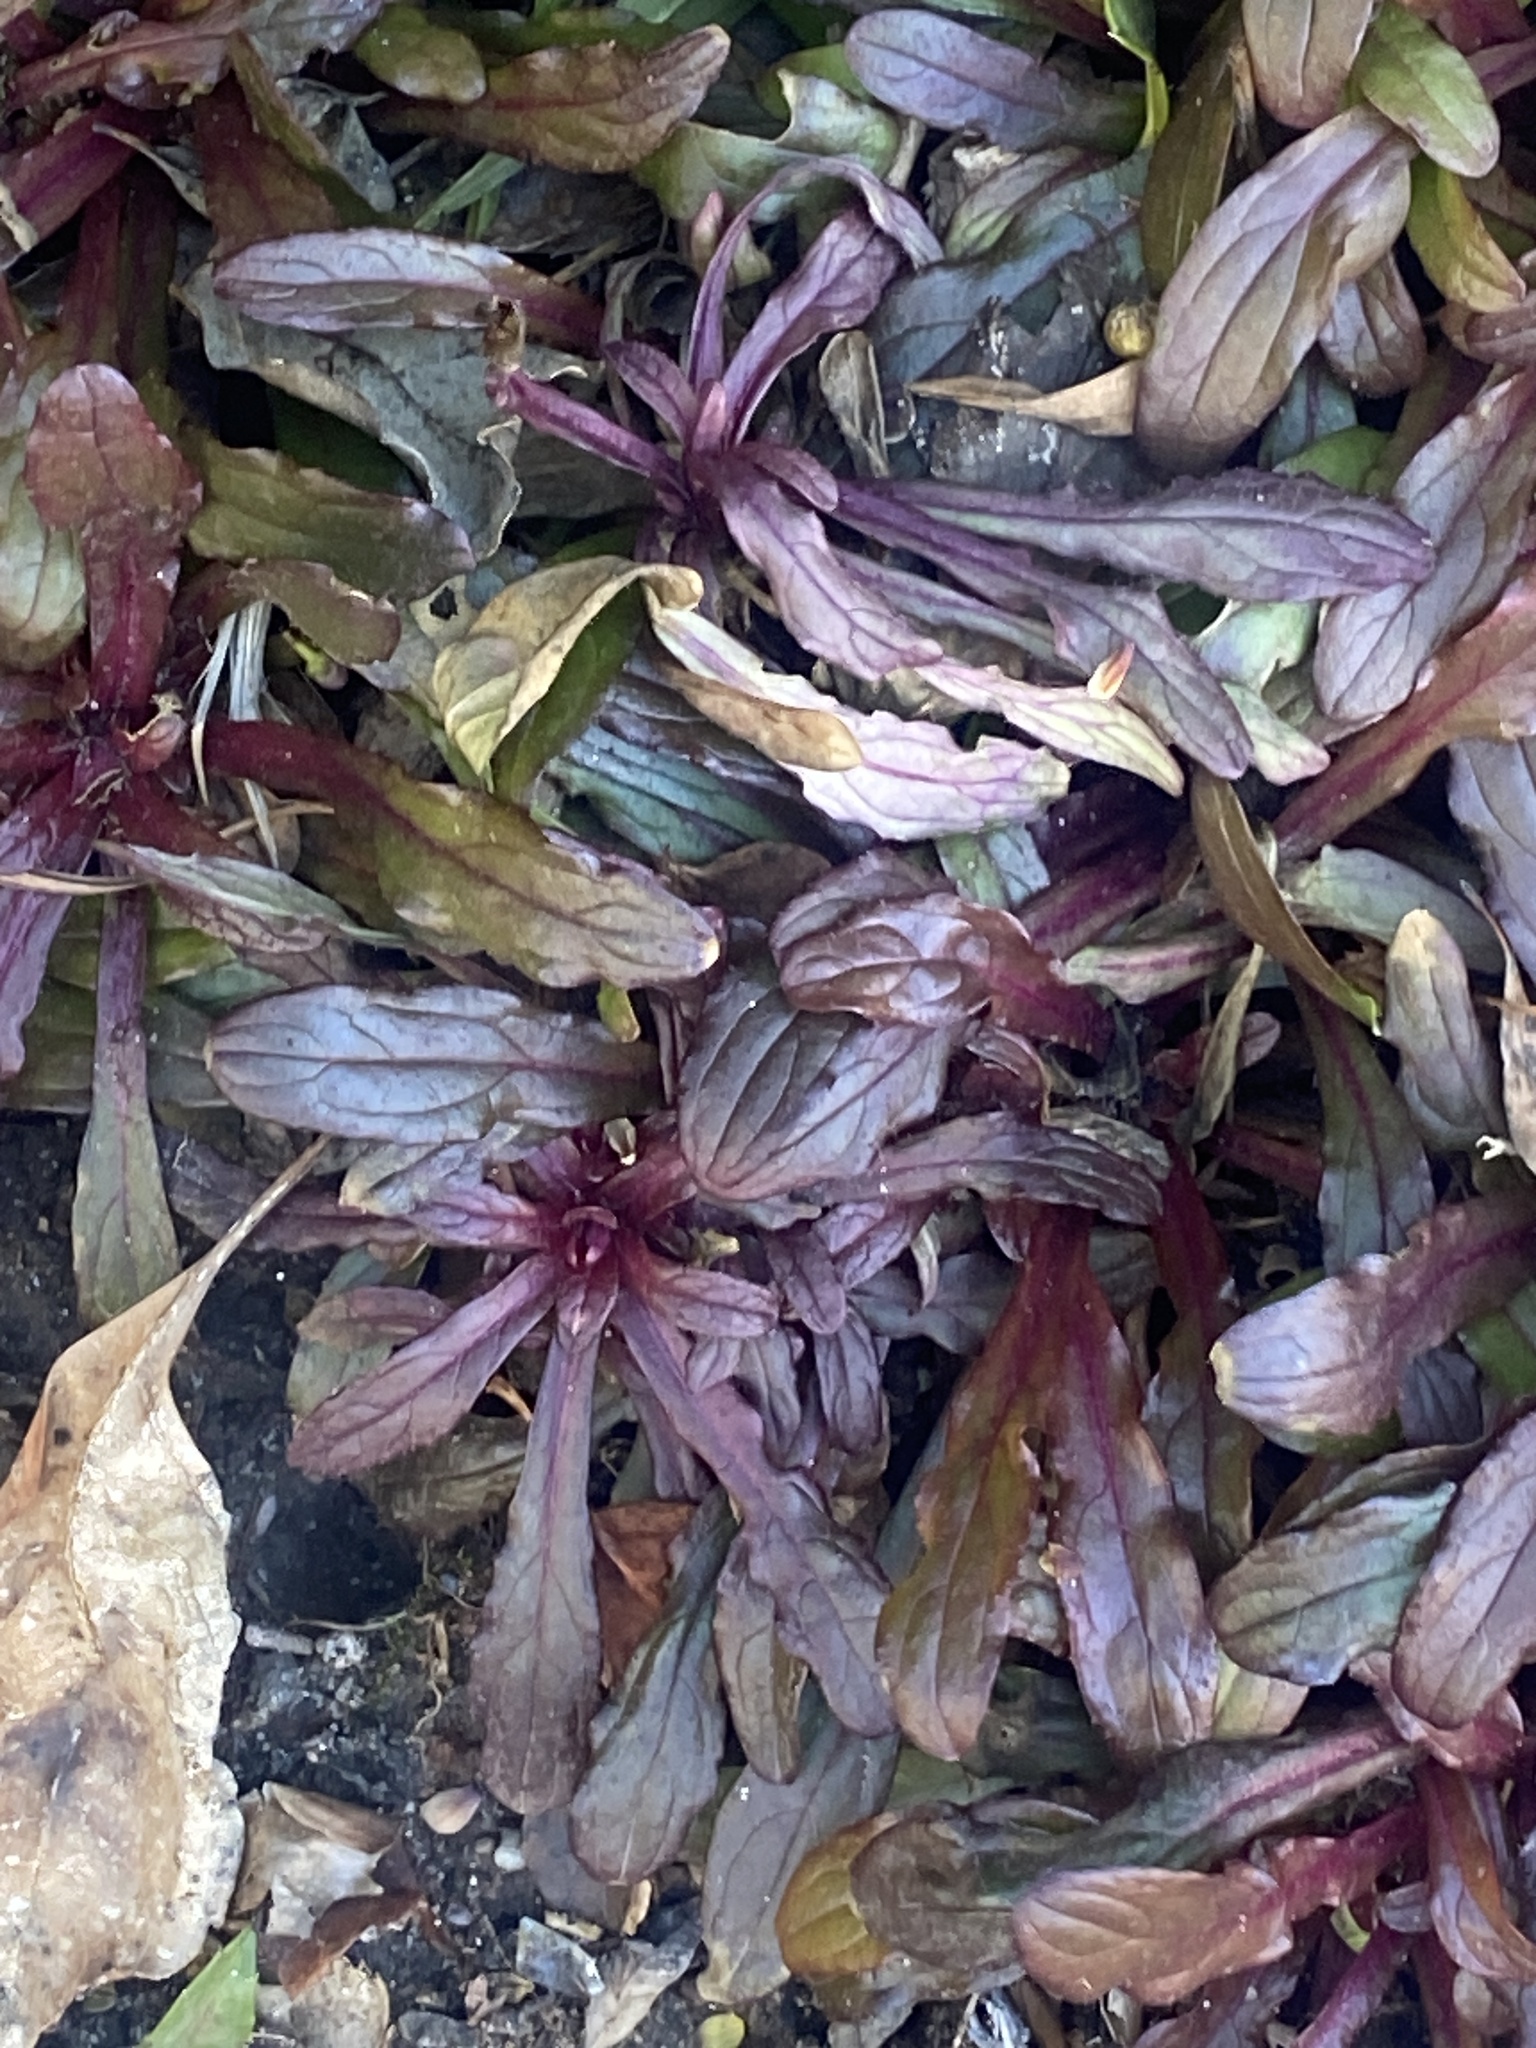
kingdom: Plantae
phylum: Tracheophyta
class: Magnoliopsida
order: Lamiales
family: Lamiaceae
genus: Ajuga
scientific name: Ajuga reptans
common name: Bugle
